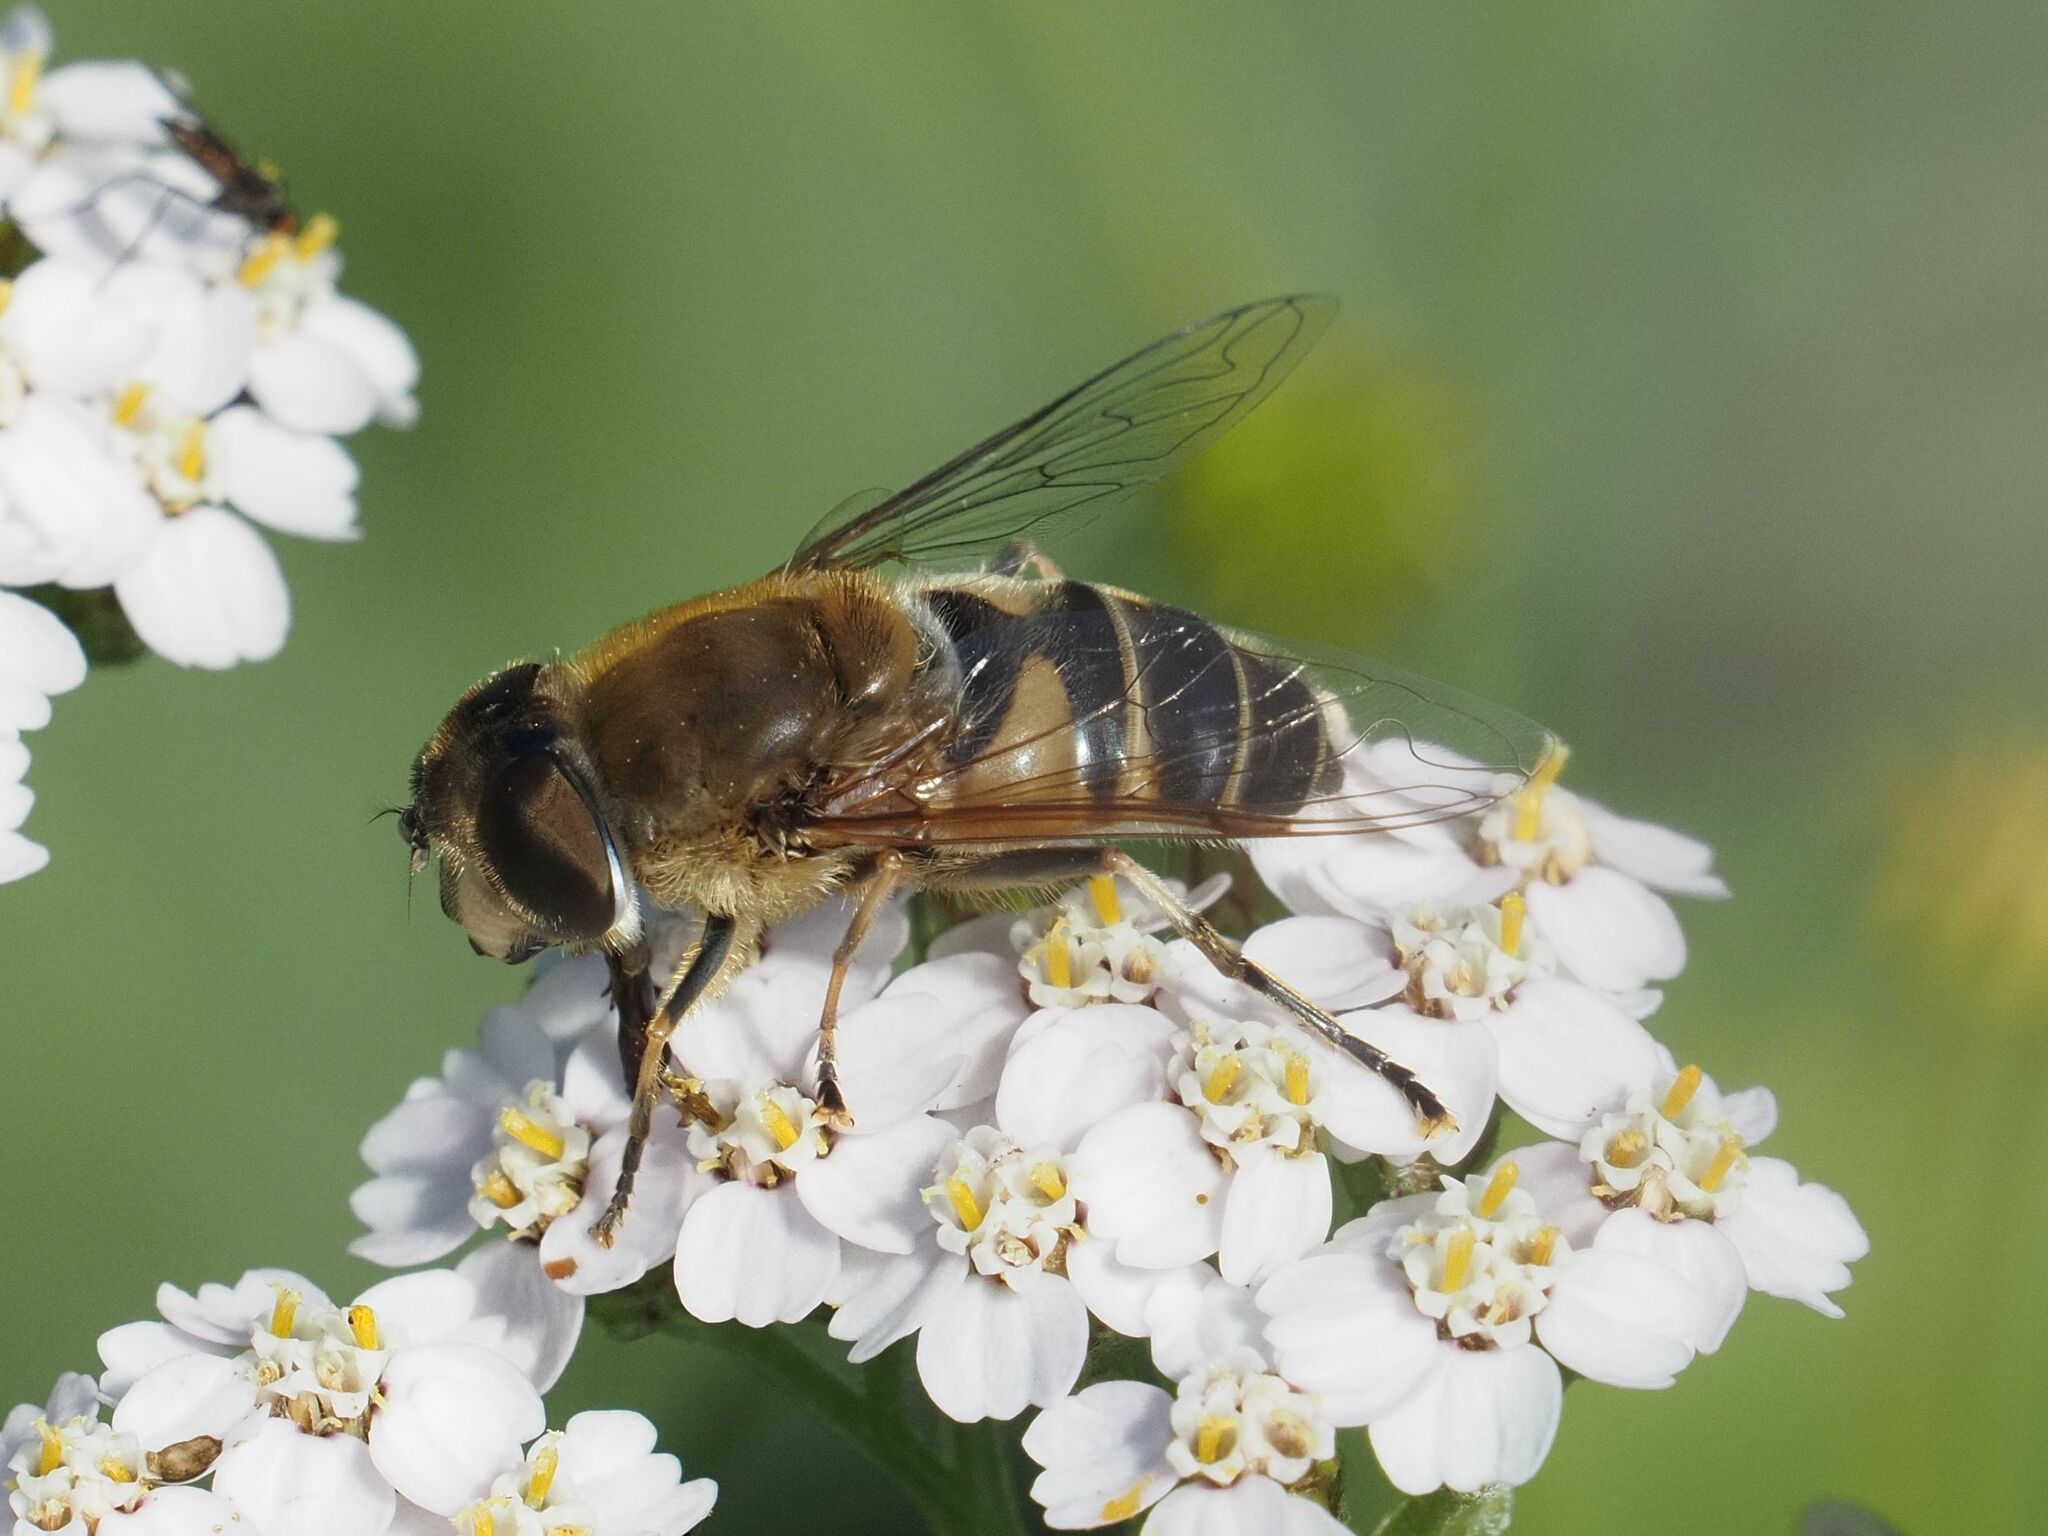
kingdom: Animalia
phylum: Arthropoda
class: Insecta
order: Diptera
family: Syrphidae
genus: Eristalis
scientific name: Eristalis pertinax
